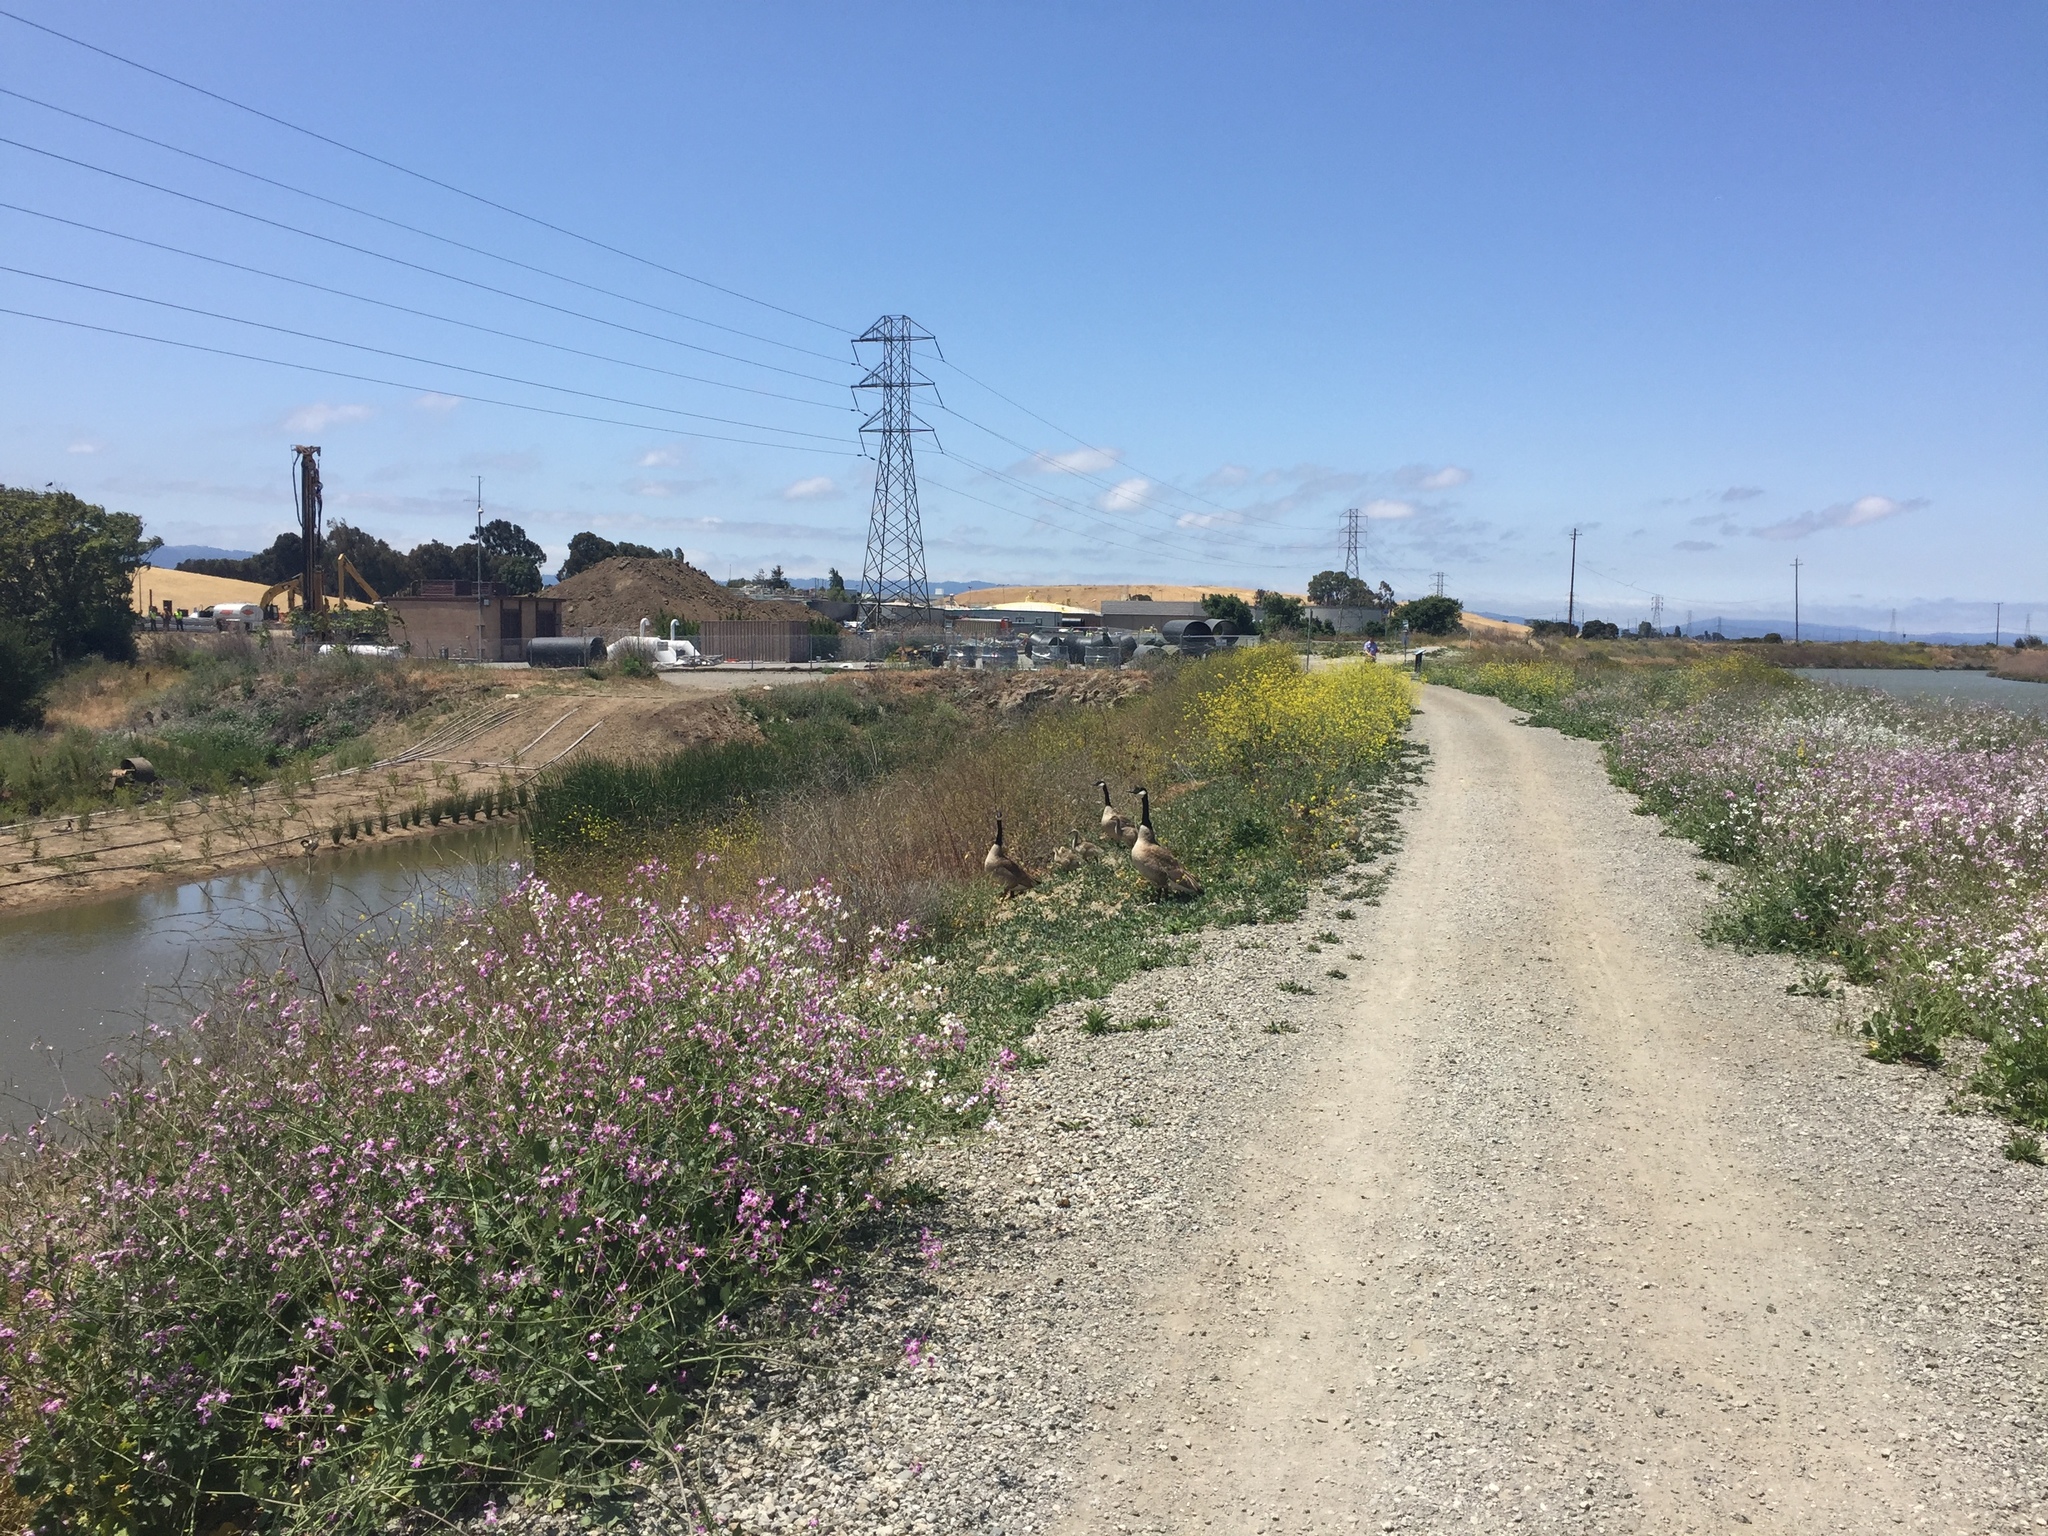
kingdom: Animalia
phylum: Chordata
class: Aves
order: Anseriformes
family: Anatidae
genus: Branta
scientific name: Branta canadensis
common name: Canada goose
